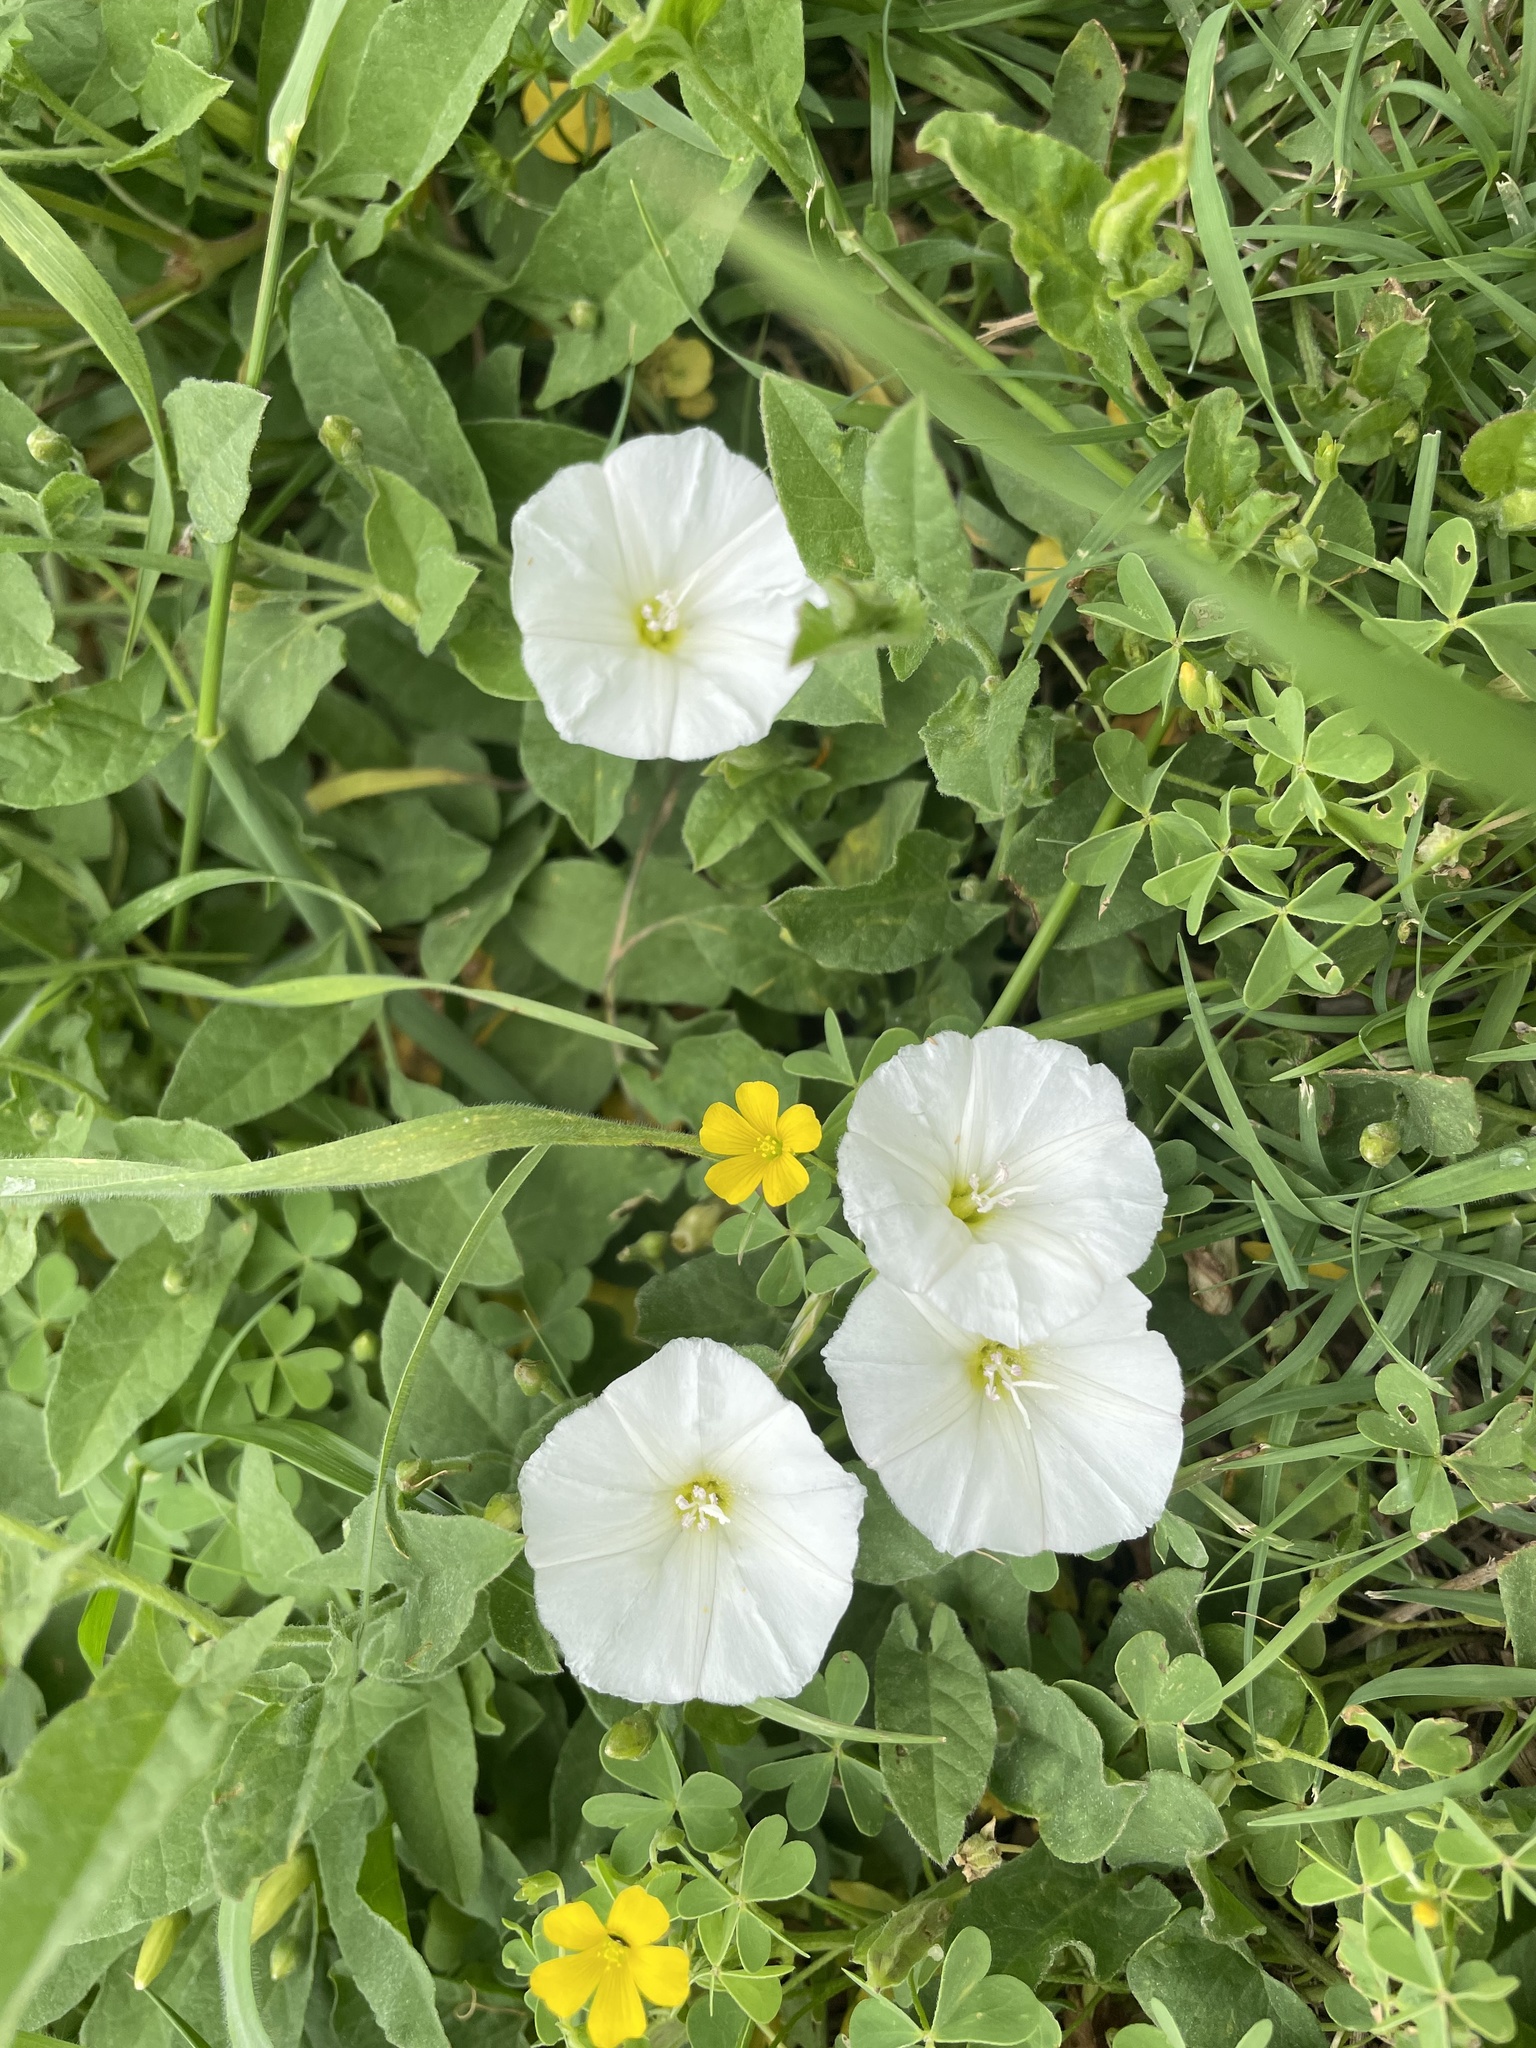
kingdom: Plantae
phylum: Tracheophyta
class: Magnoliopsida
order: Solanales
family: Convolvulaceae
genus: Convolvulus
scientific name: Convolvulus arvensis
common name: Field bindweed
